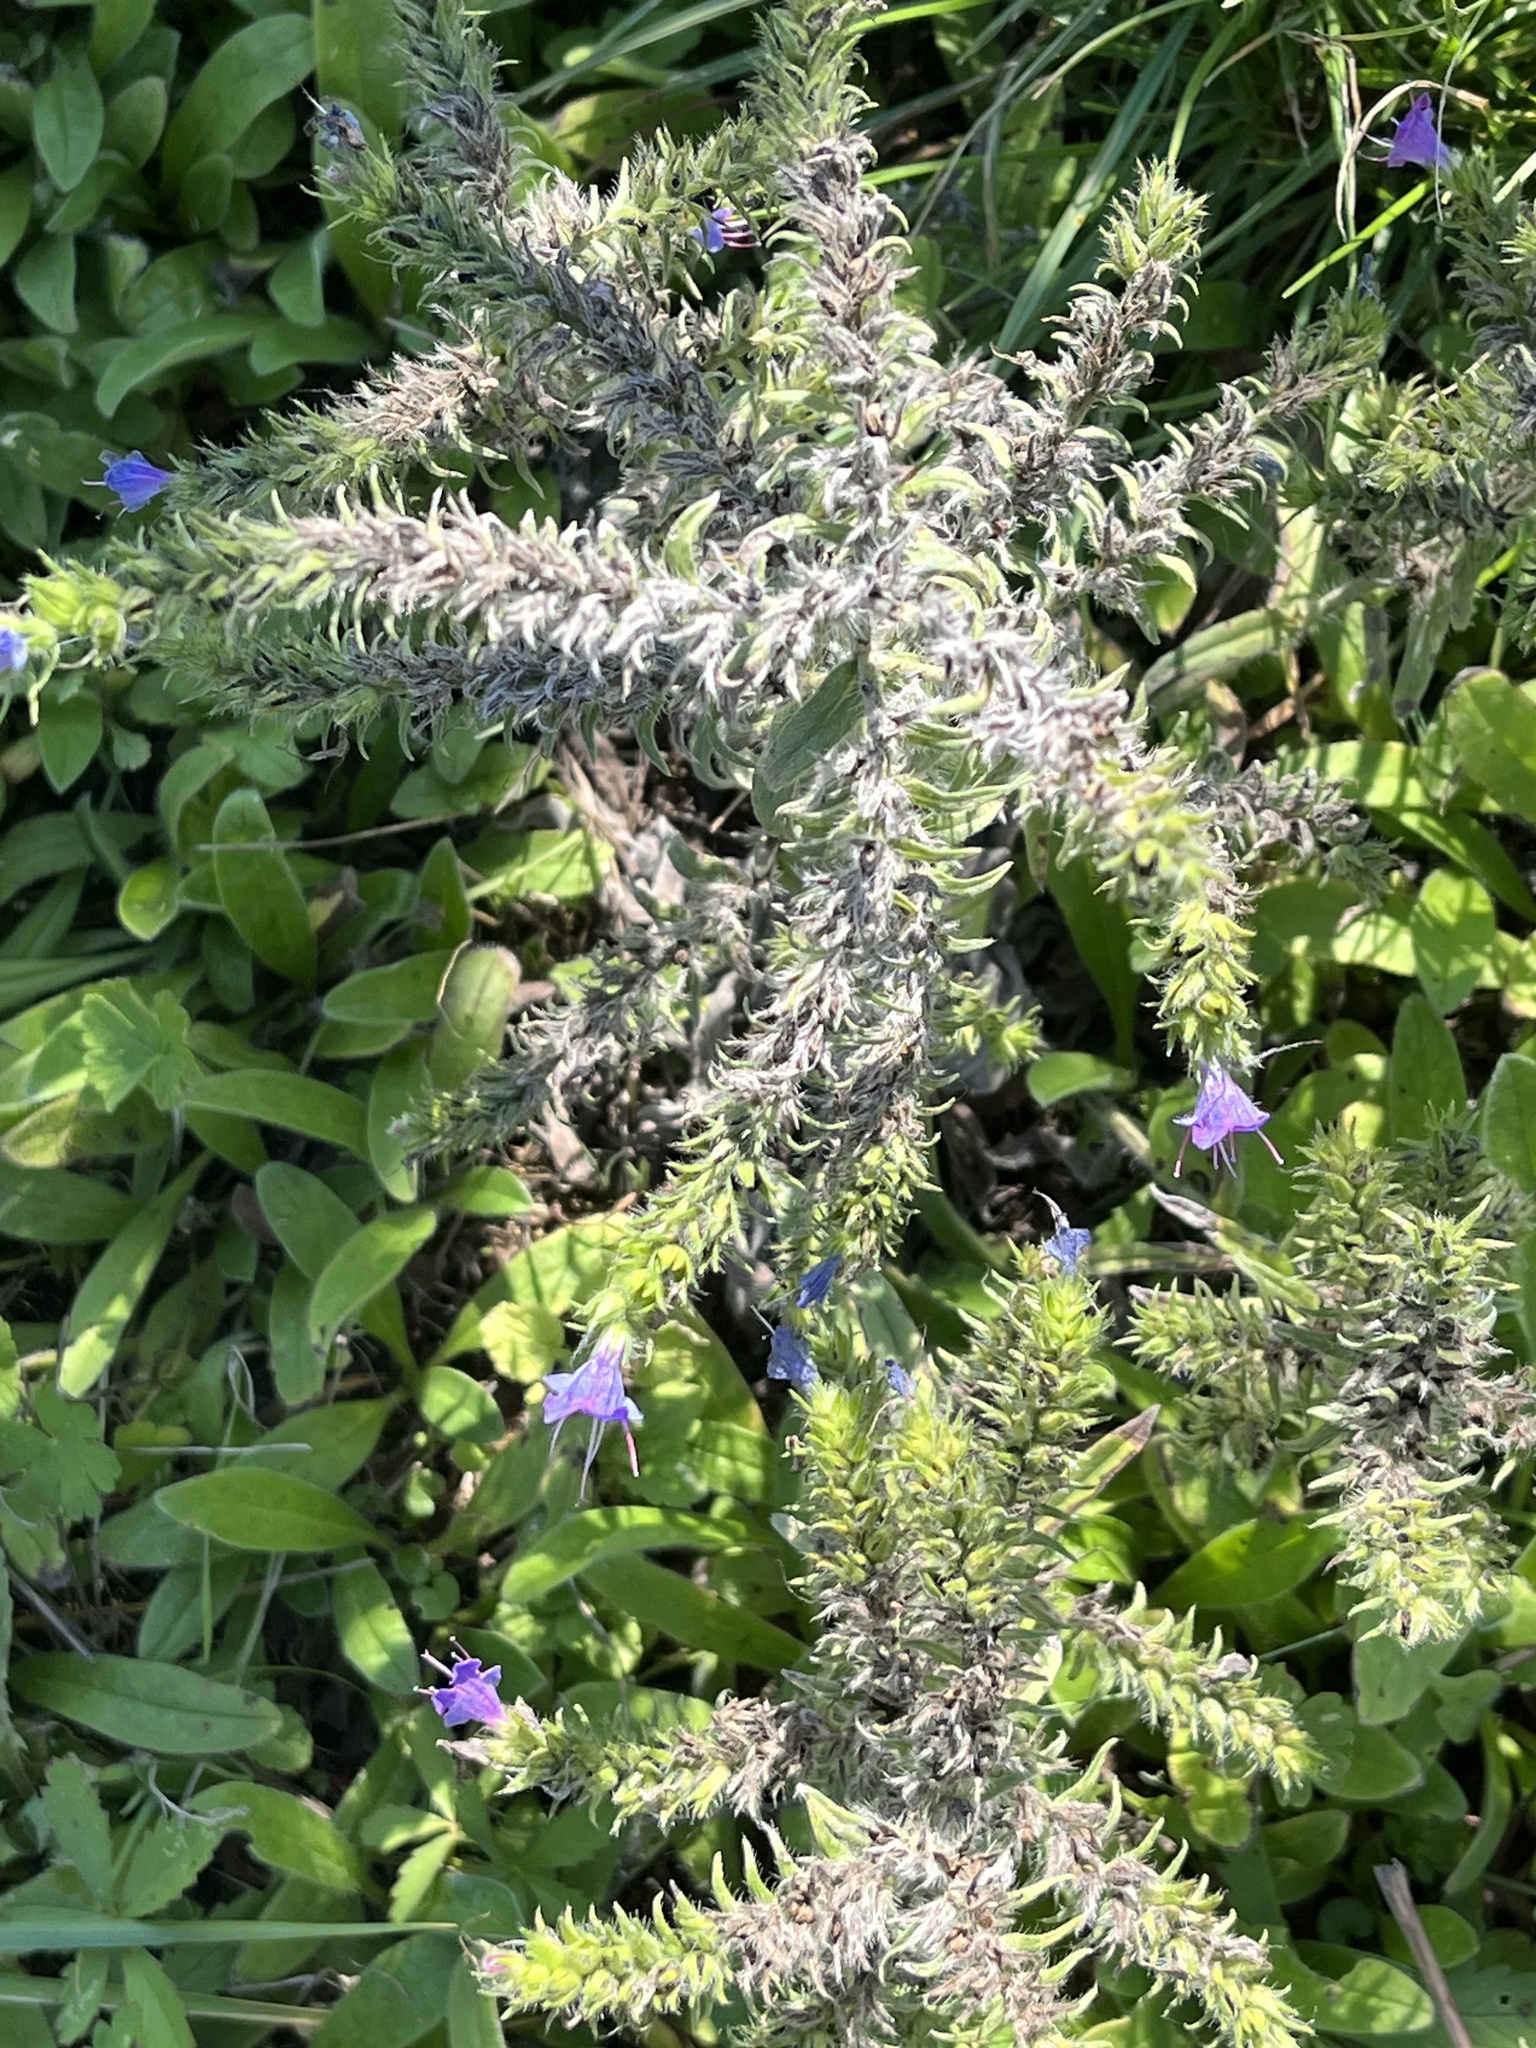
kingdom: Plantae
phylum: Tracheophyta
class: Magnoliopsida
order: Boraginales
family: Boraginaceae
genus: Echium
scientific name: Echium vulgare
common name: Common viper's bugloss
